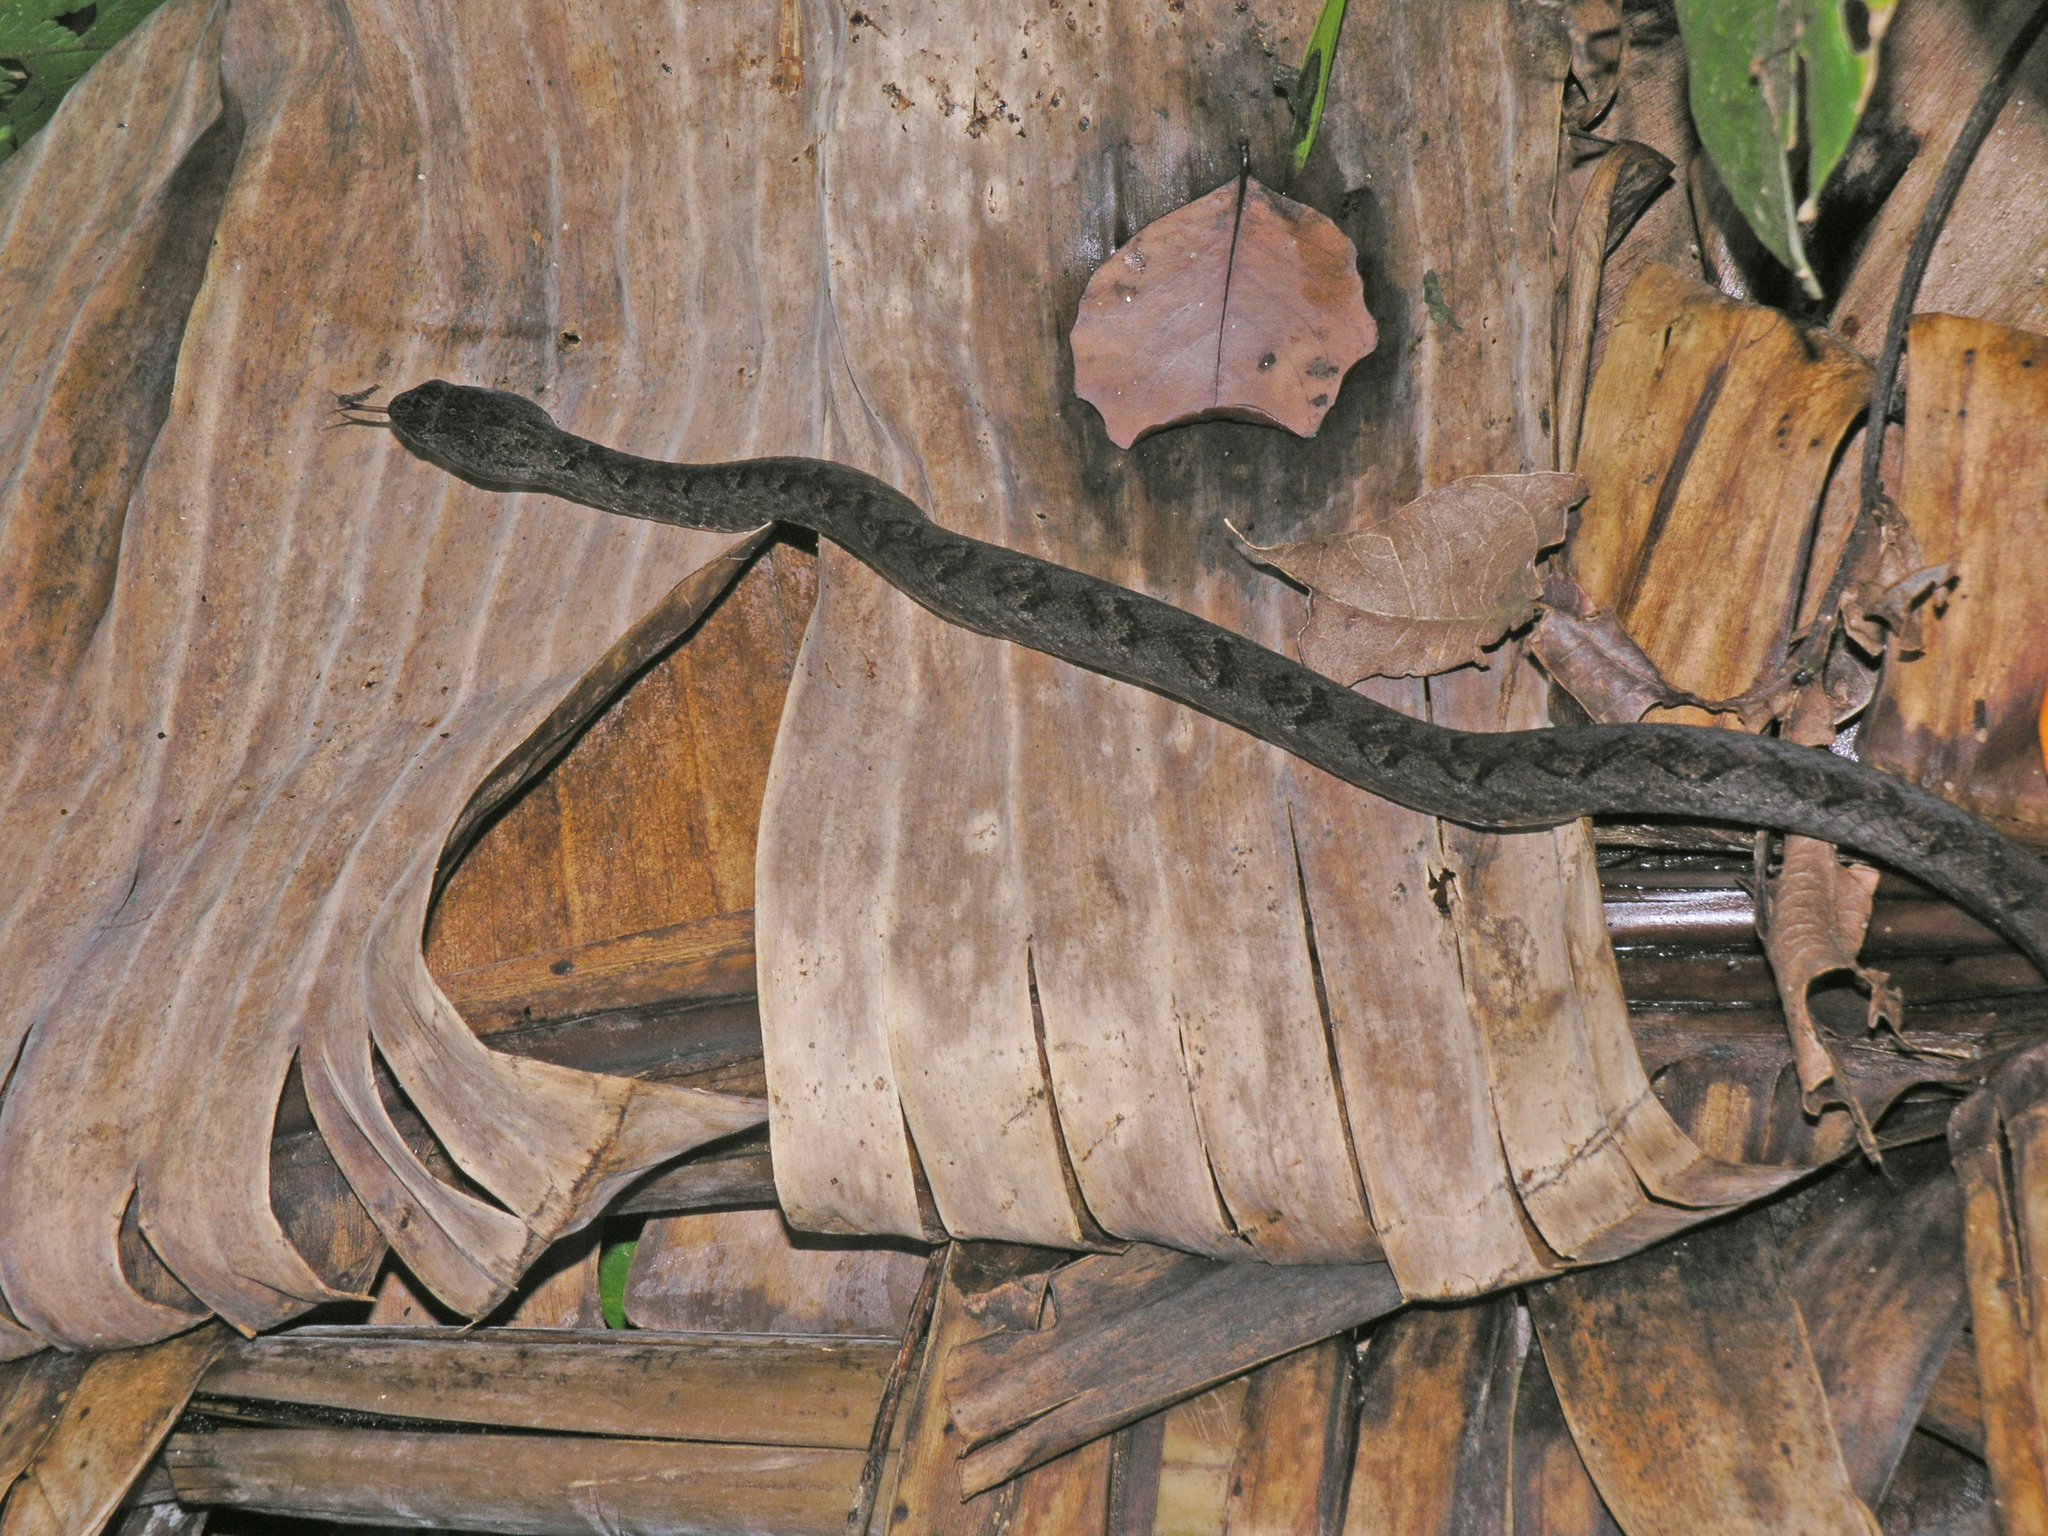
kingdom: Animalia
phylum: Chordata
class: Squamata
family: Pseudaspididae
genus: Psammodynastes
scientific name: Psammodynastes pulverulentus
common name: Common mock viper
